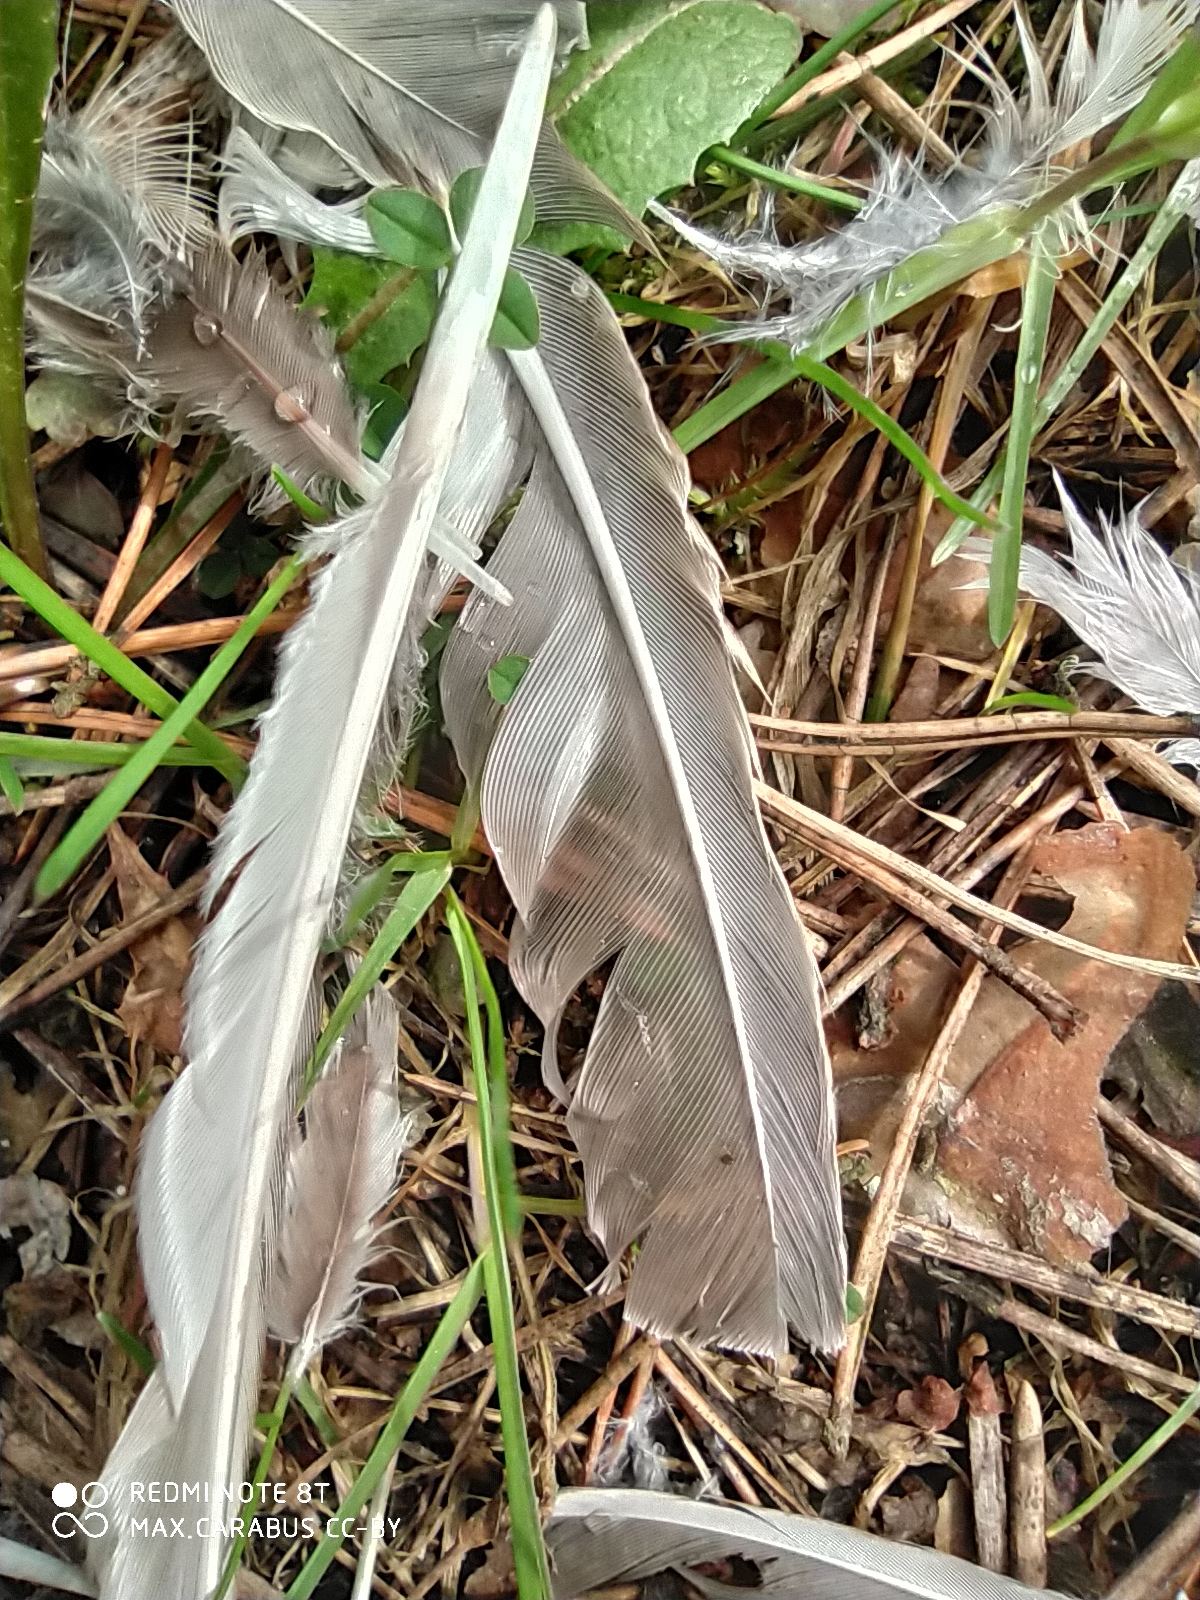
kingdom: Animalia
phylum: Chordata
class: Aves
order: Passeriformes
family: Turdidae
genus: Turdus
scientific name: Turdus viscivorus
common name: Mistle thrush
